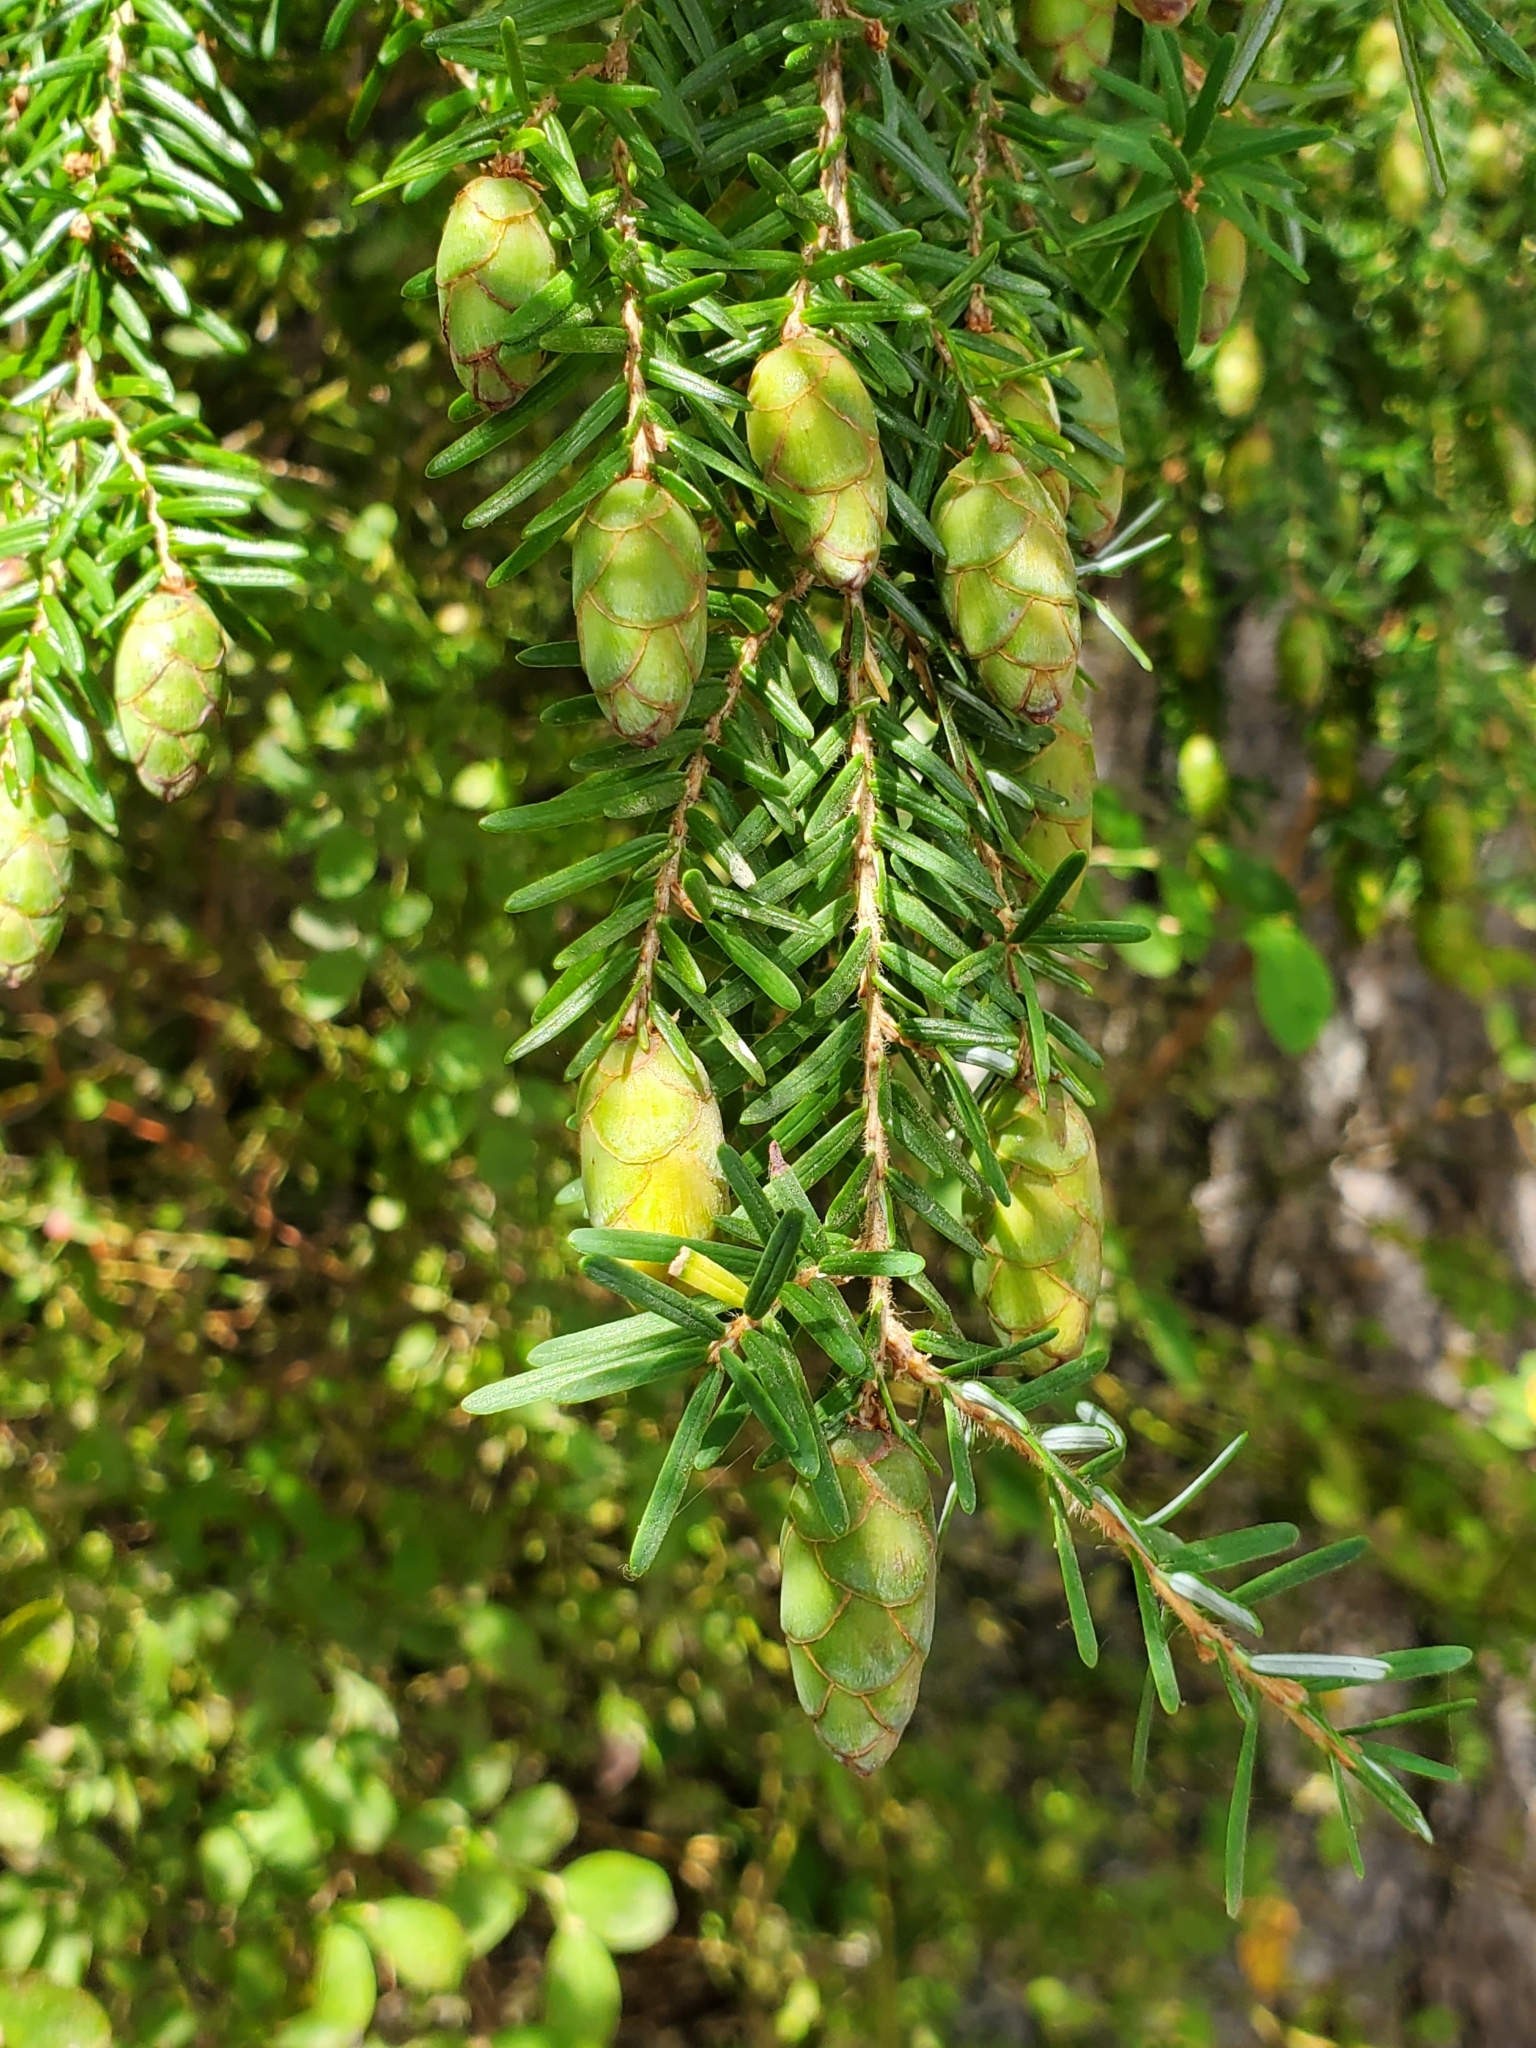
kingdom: Plantae
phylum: Tracheophyta
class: Pinopsida
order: Pinales
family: Pinaceae
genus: Tsuga
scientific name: Tsuga heterophylla
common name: Western hemlock
